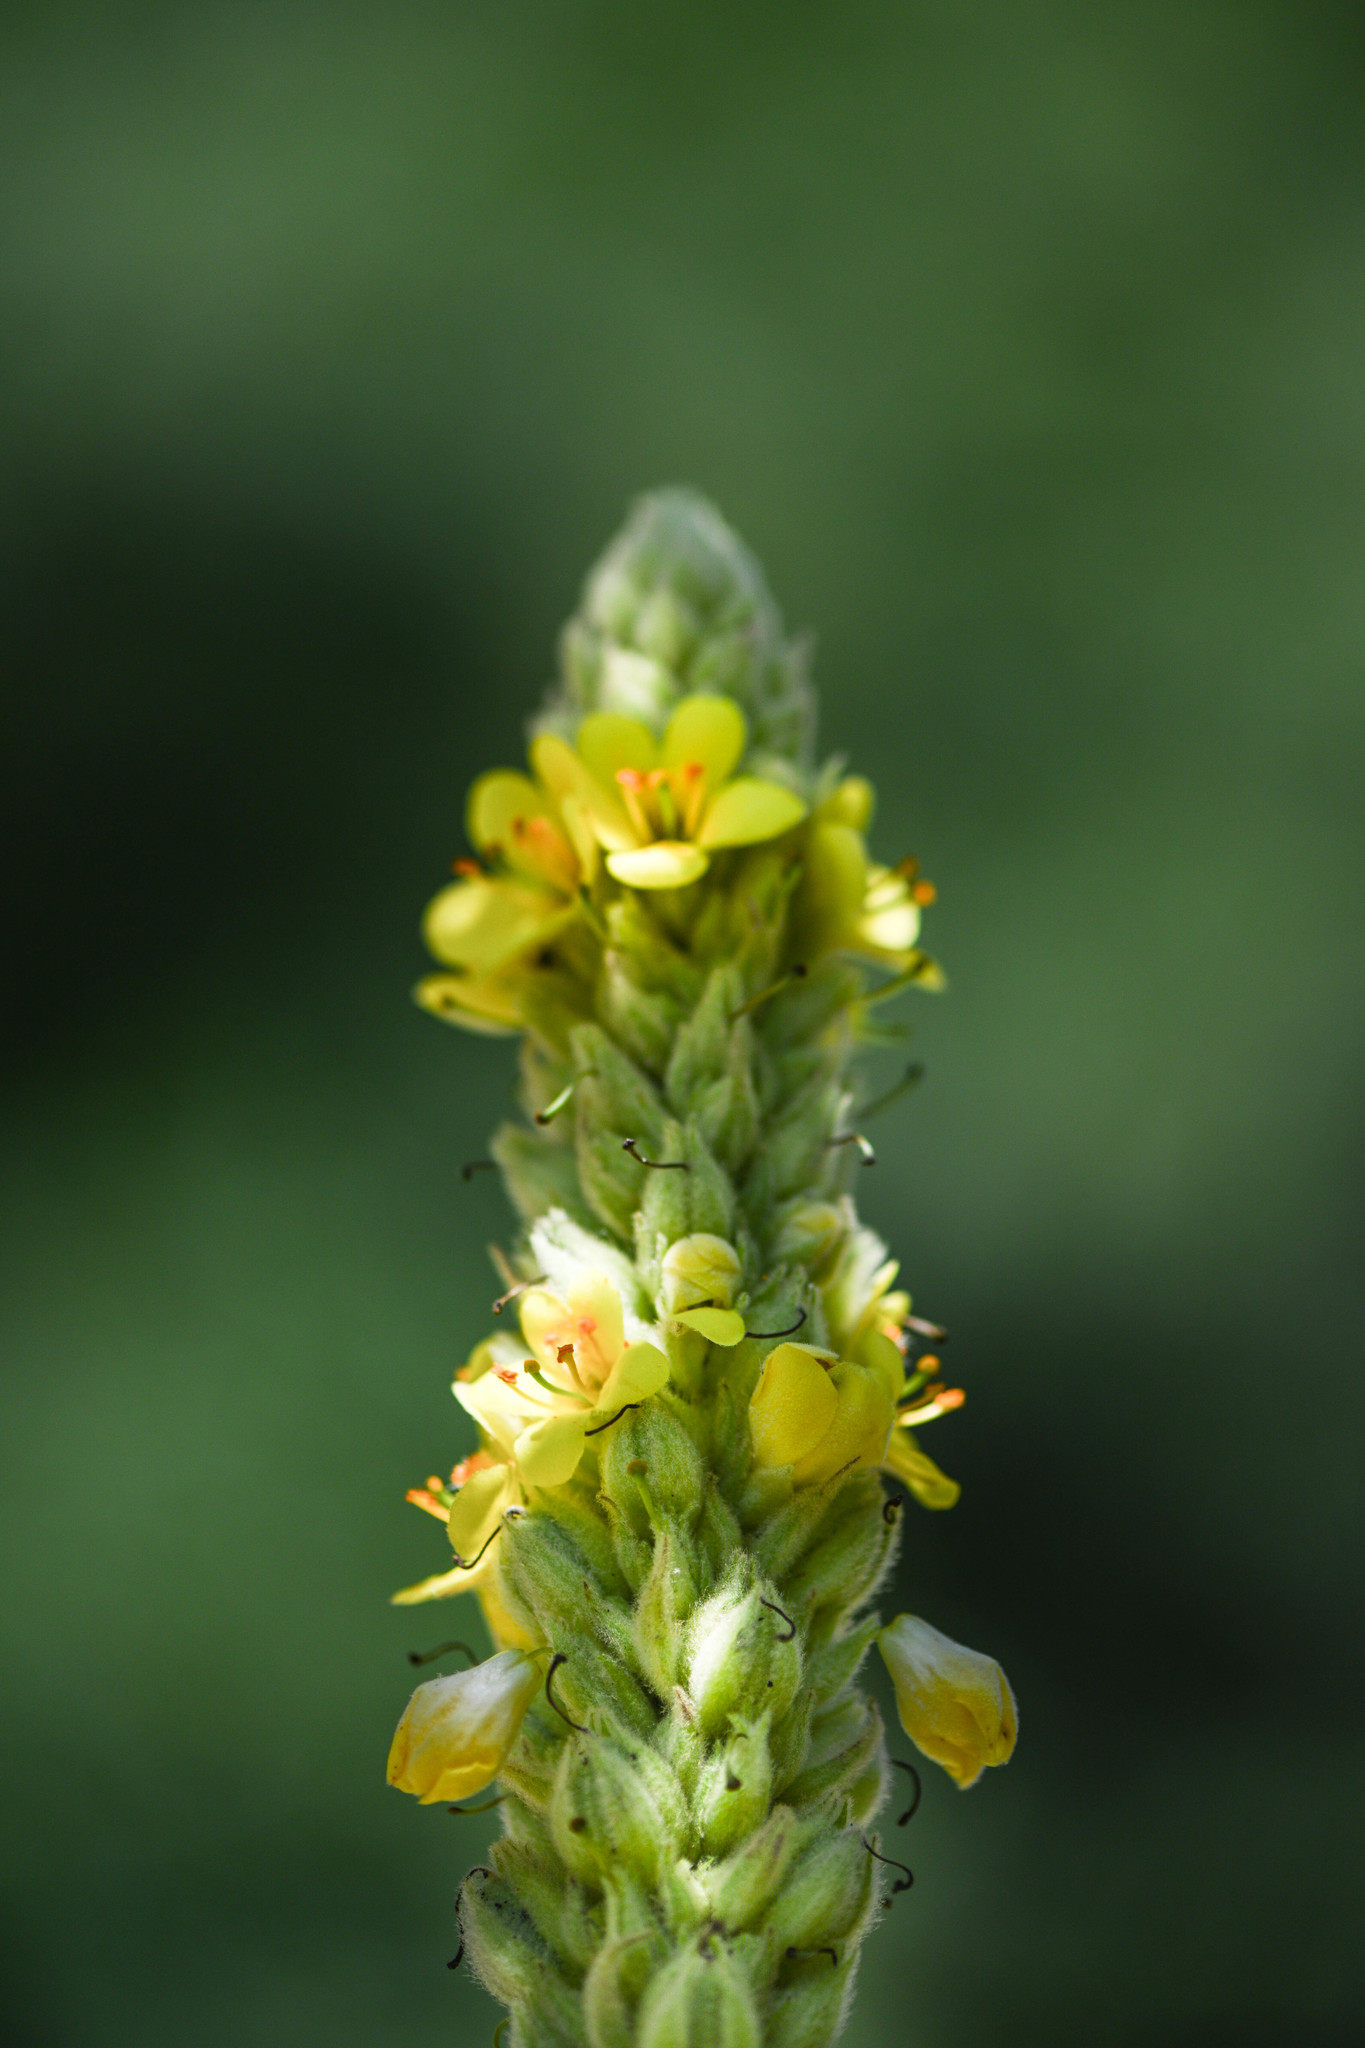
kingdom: Plantae
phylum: Tracheophyta
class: Magnoliopsida
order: Lamiales
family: Scrophulariaceae
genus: Verbascum
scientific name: Verbascum thapsus
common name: Common mullein
